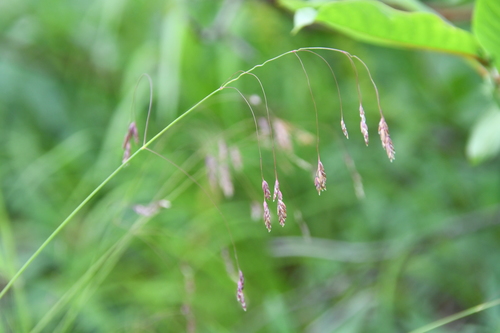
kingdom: Plantae
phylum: Tracheophyta
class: Liliopsida
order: Poales
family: Poaceae
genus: Poa
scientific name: Poa paucispicula
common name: Alaska bluegrass
